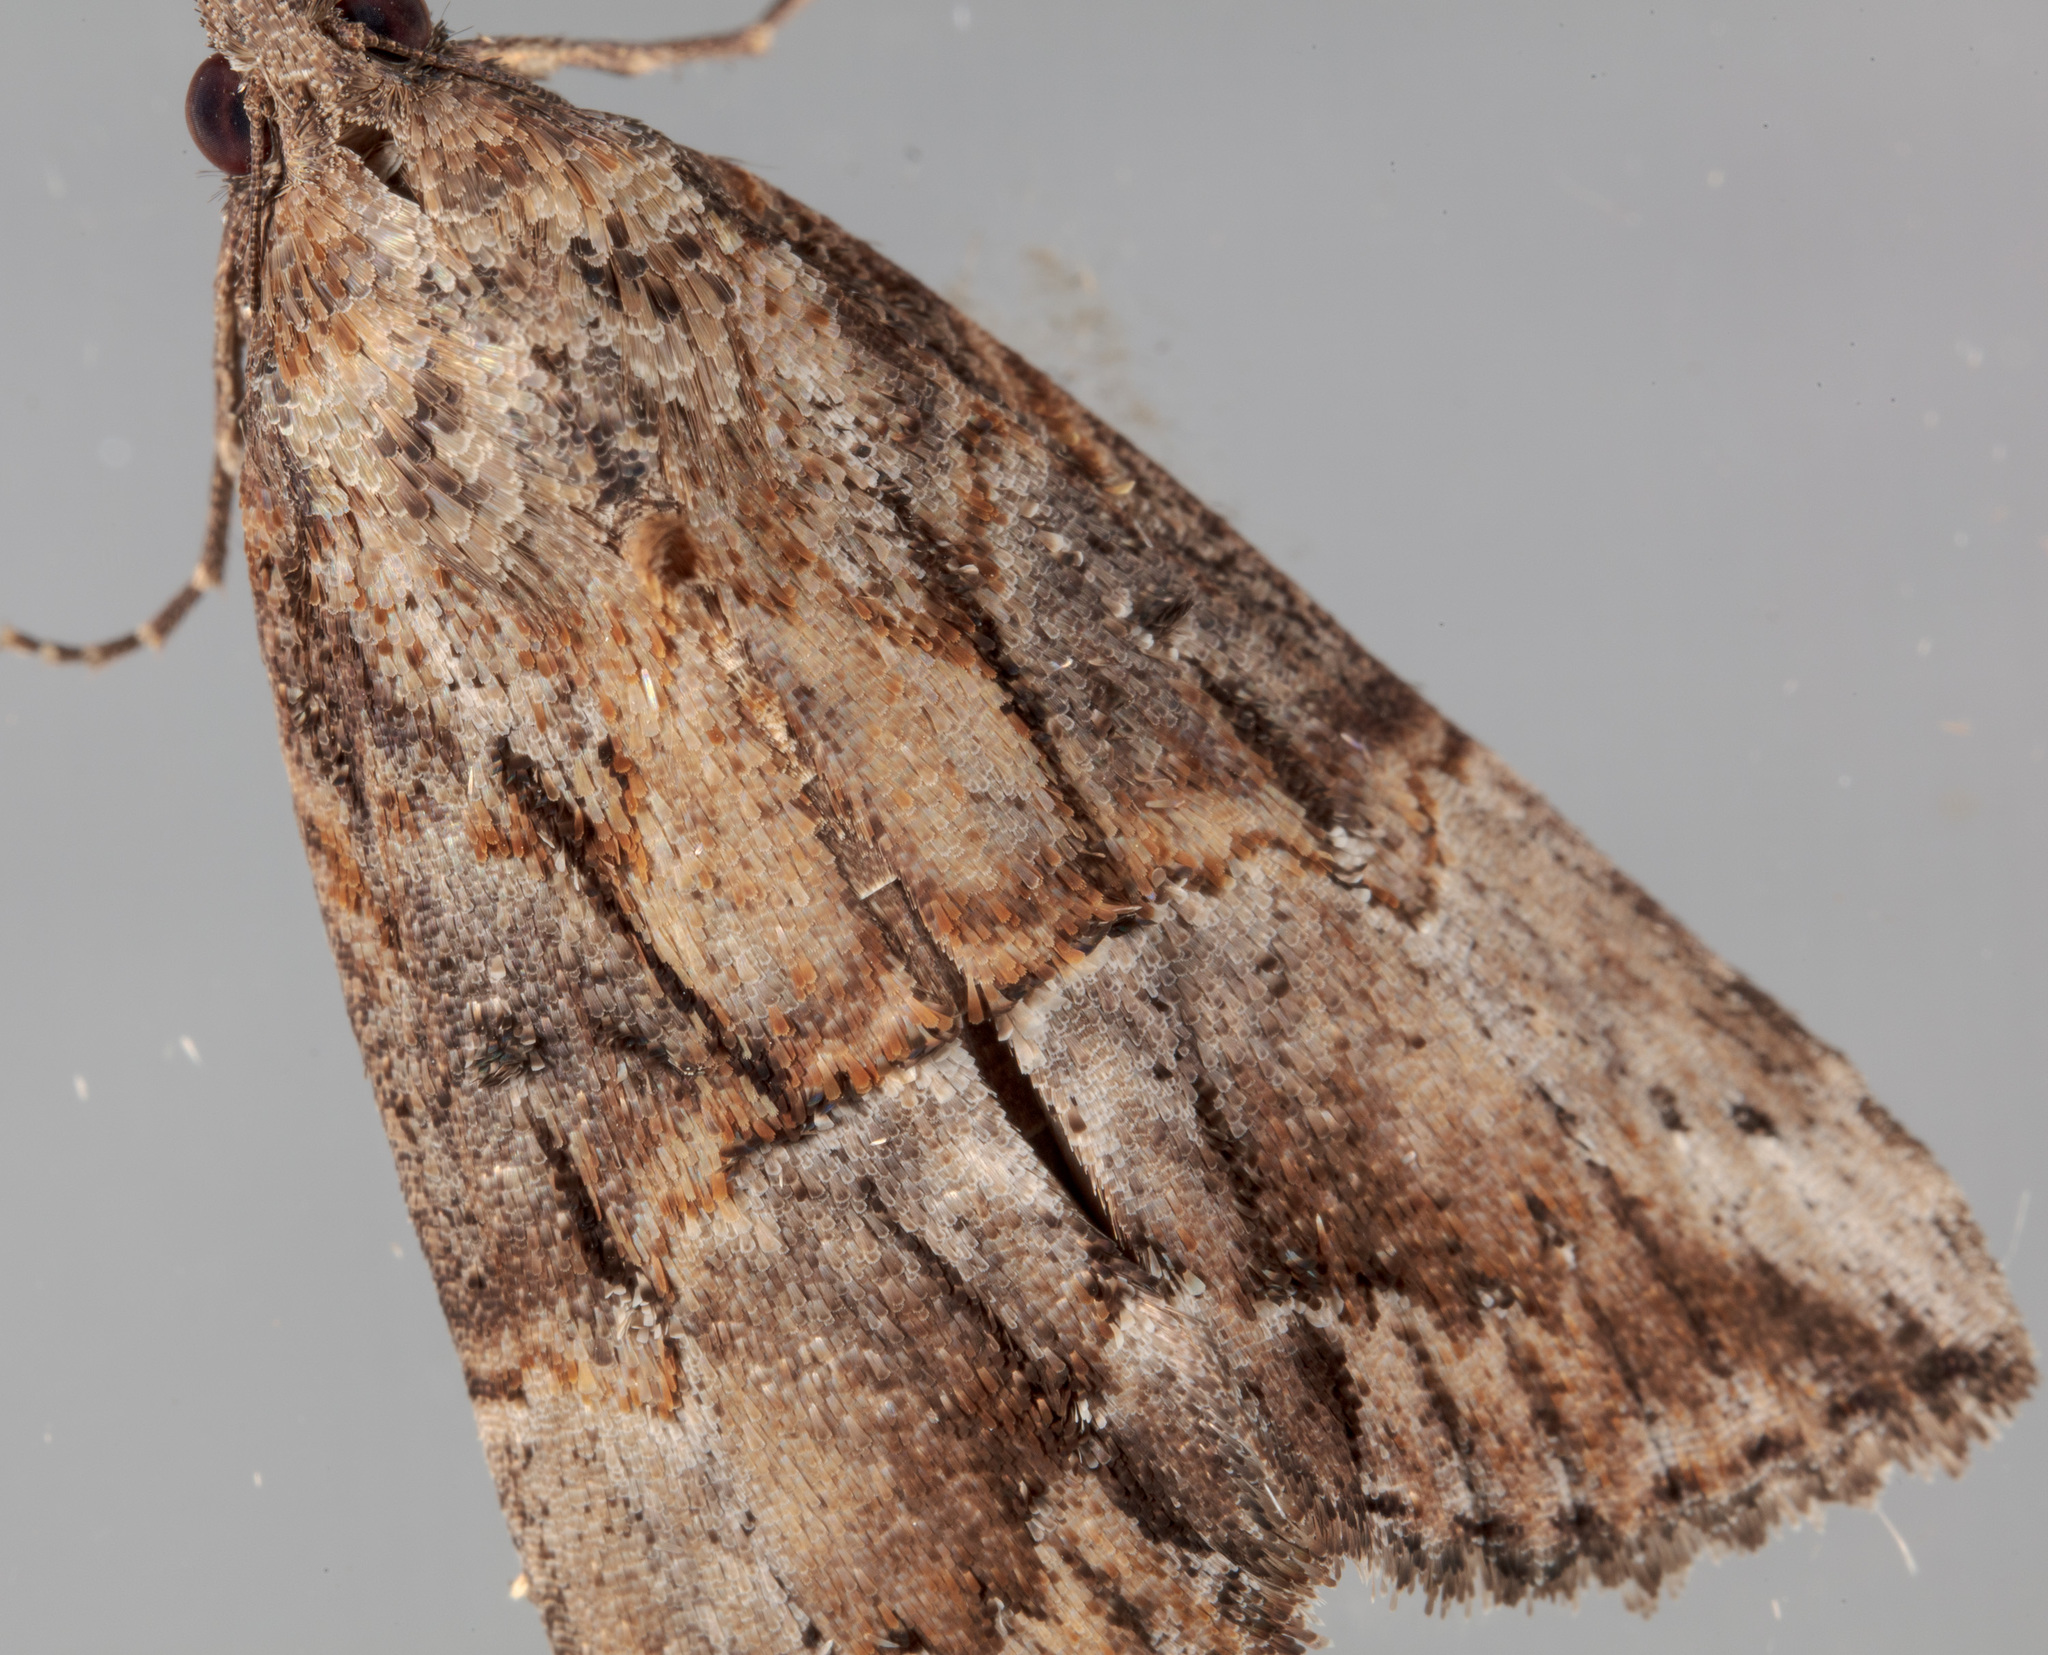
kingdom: Animalia
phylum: Arthropoda
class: Insecta
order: Lepidoptera
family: Erebidae
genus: Hypena
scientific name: Hypena scabra
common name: Green cloverworm
